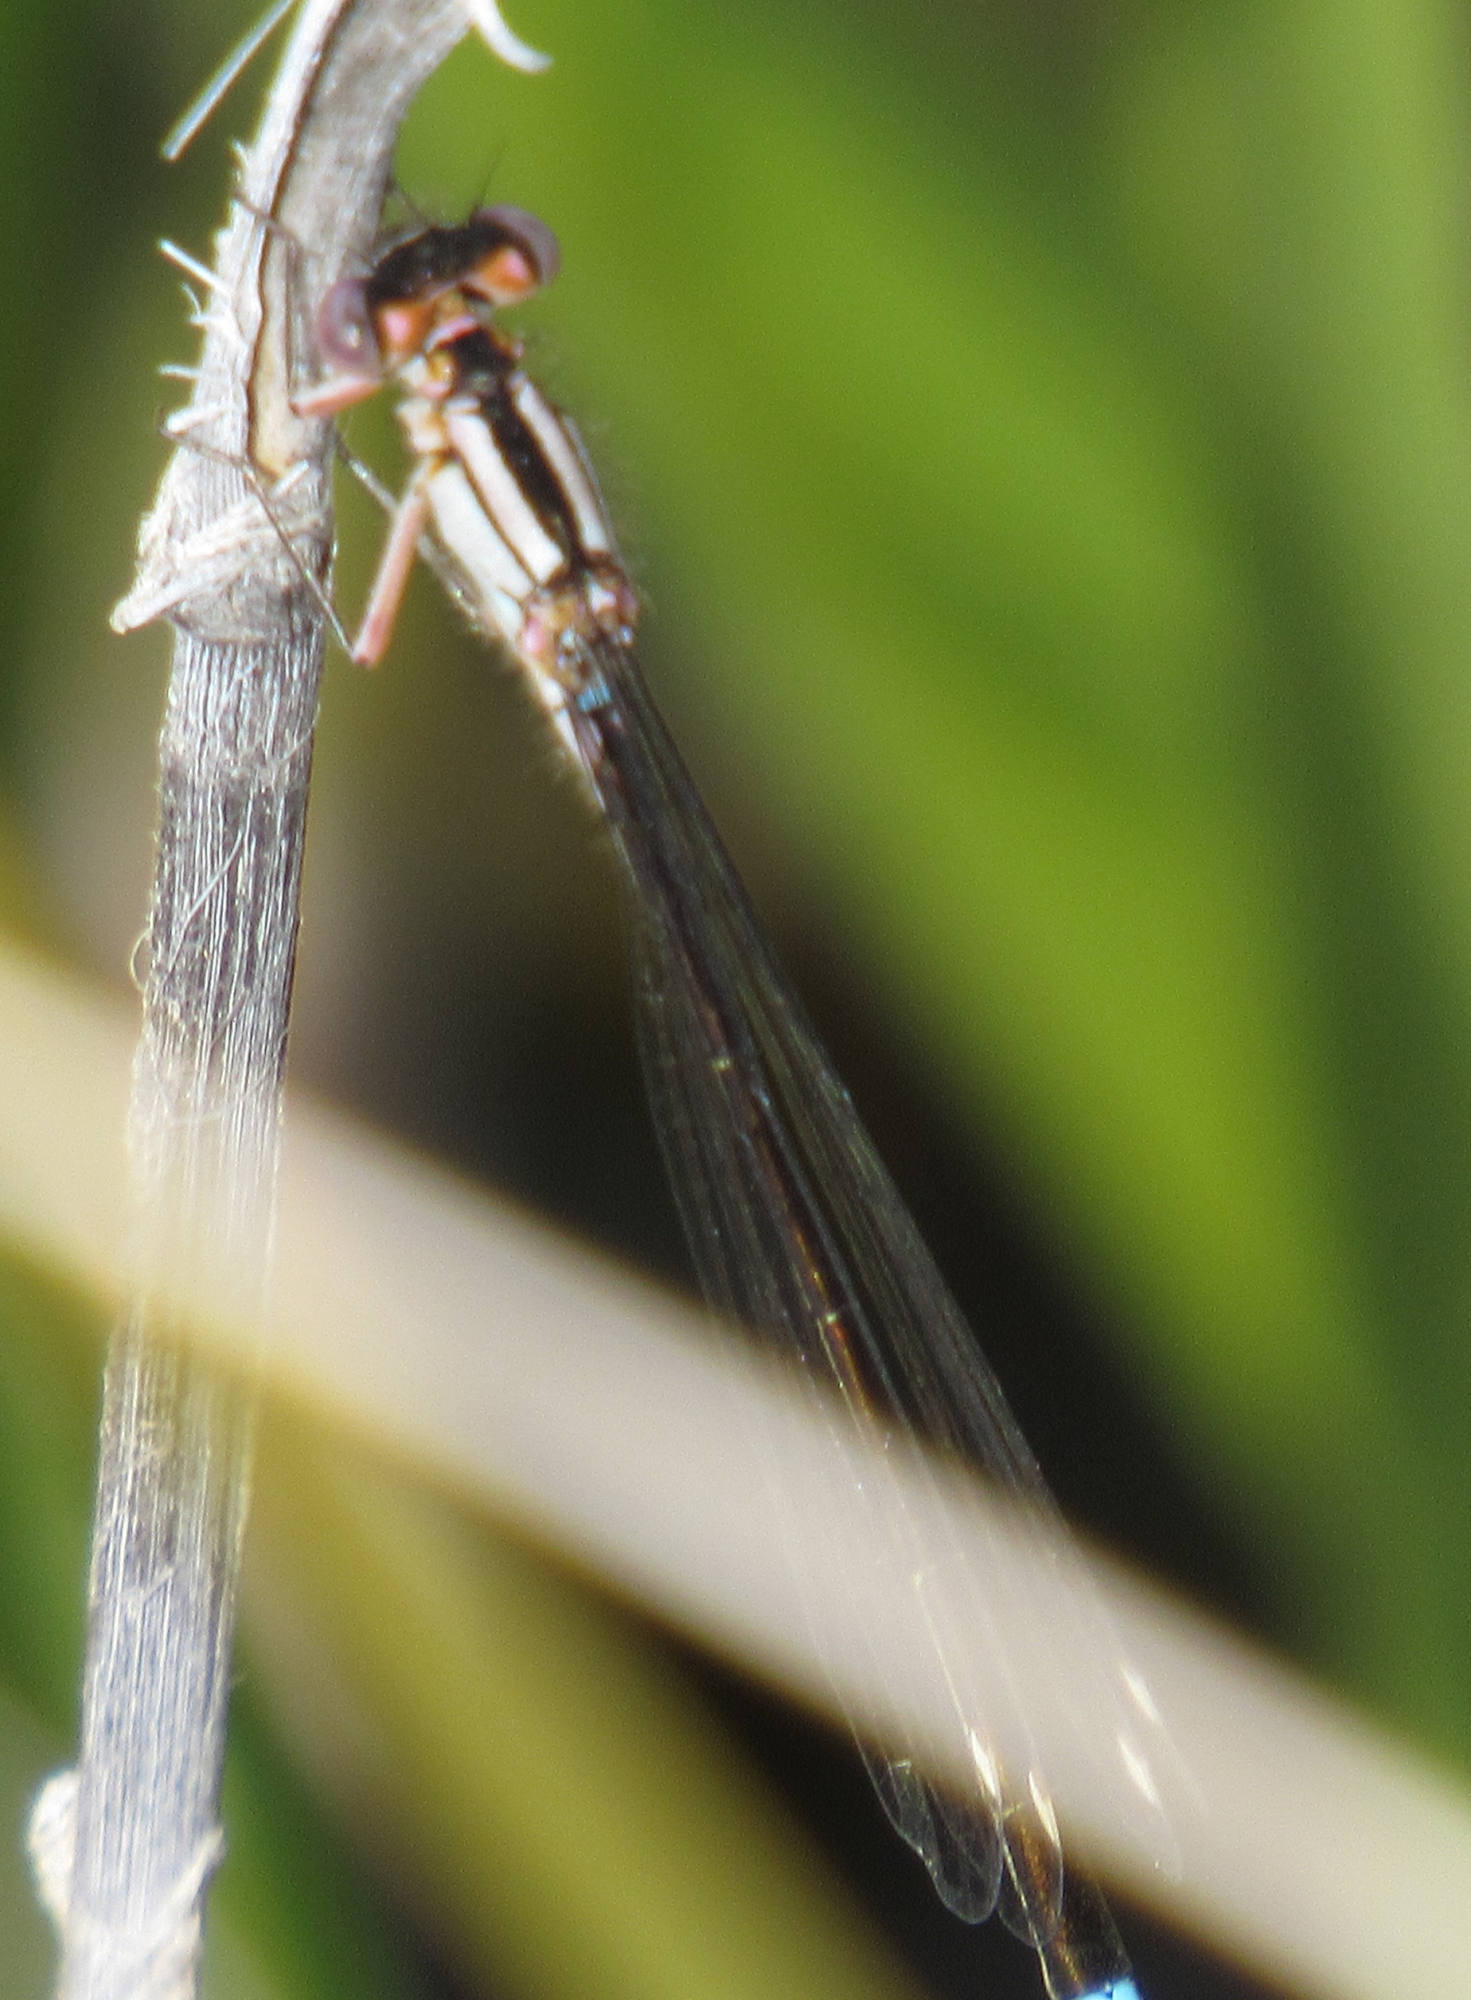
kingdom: Animalia
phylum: Arthropoda
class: Insecta
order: Odonata
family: Coenagrionidae
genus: Ischnura
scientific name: Ischnura cervula
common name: Pacific forktail
